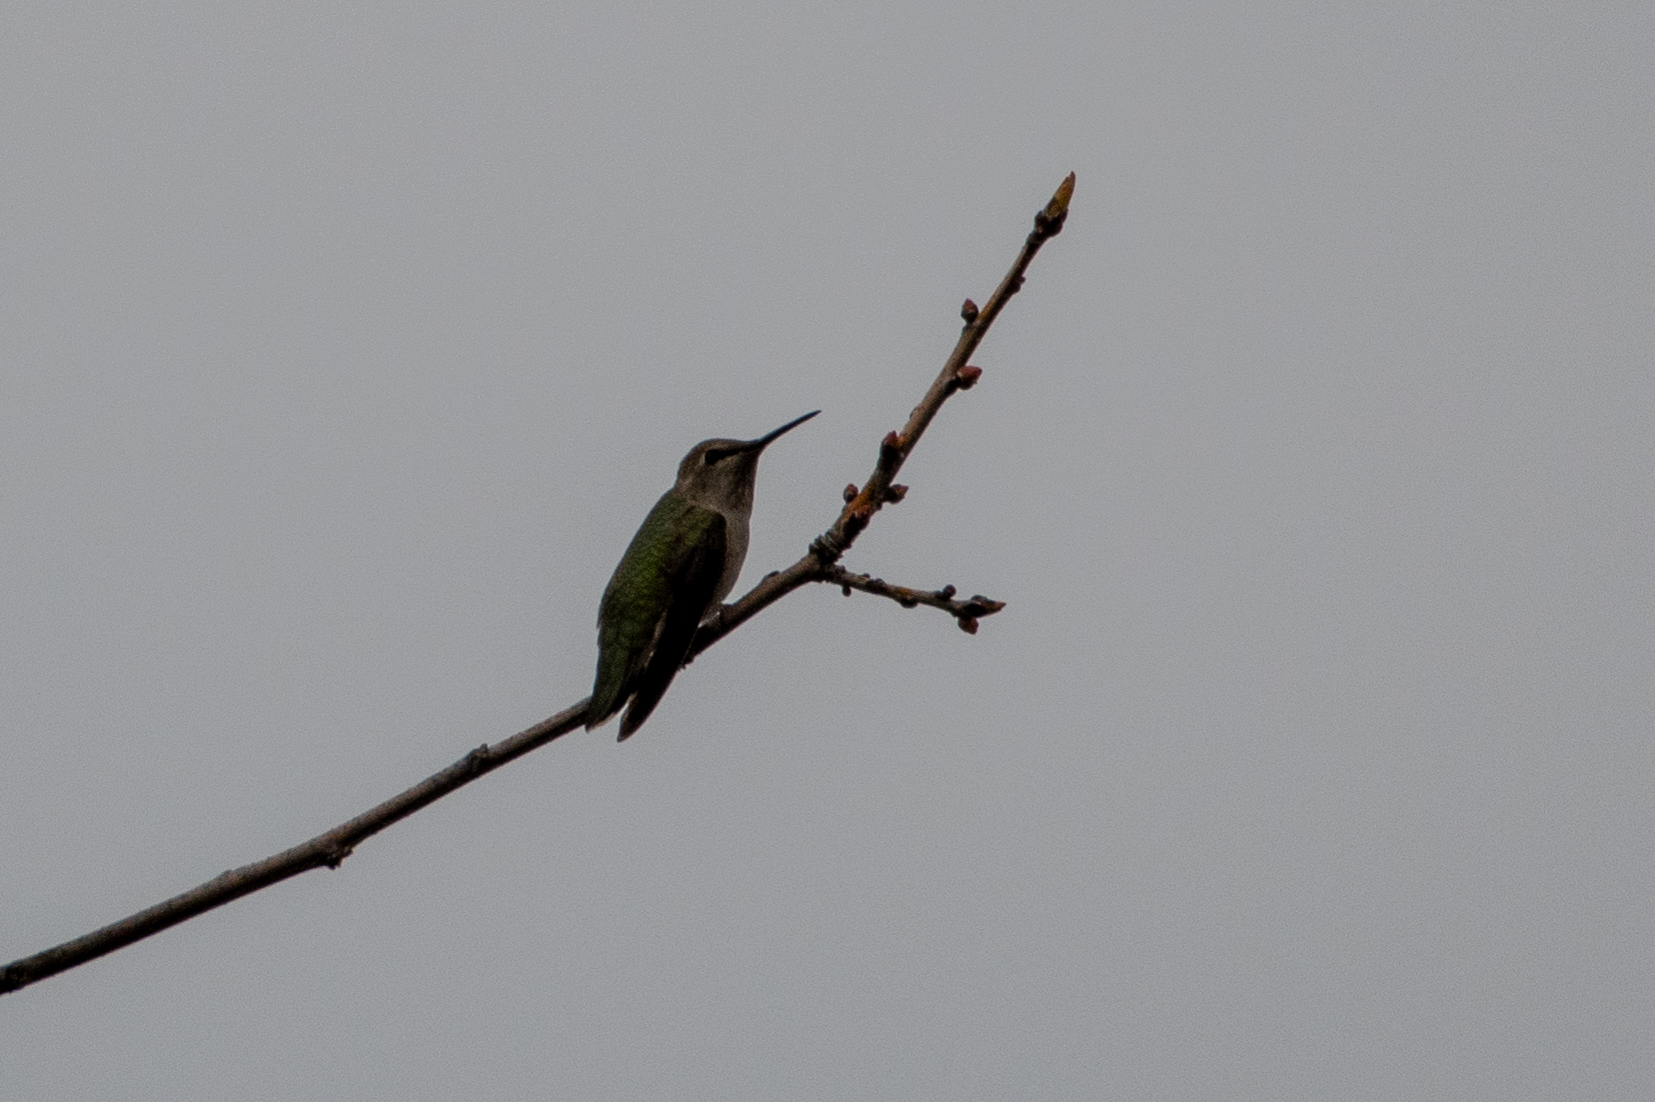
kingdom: Animalia
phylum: Chordata
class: Aves
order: Apodiformes
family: Trochilidae
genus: Calypte
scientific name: Calypte anna
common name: Anna's hummingbird
